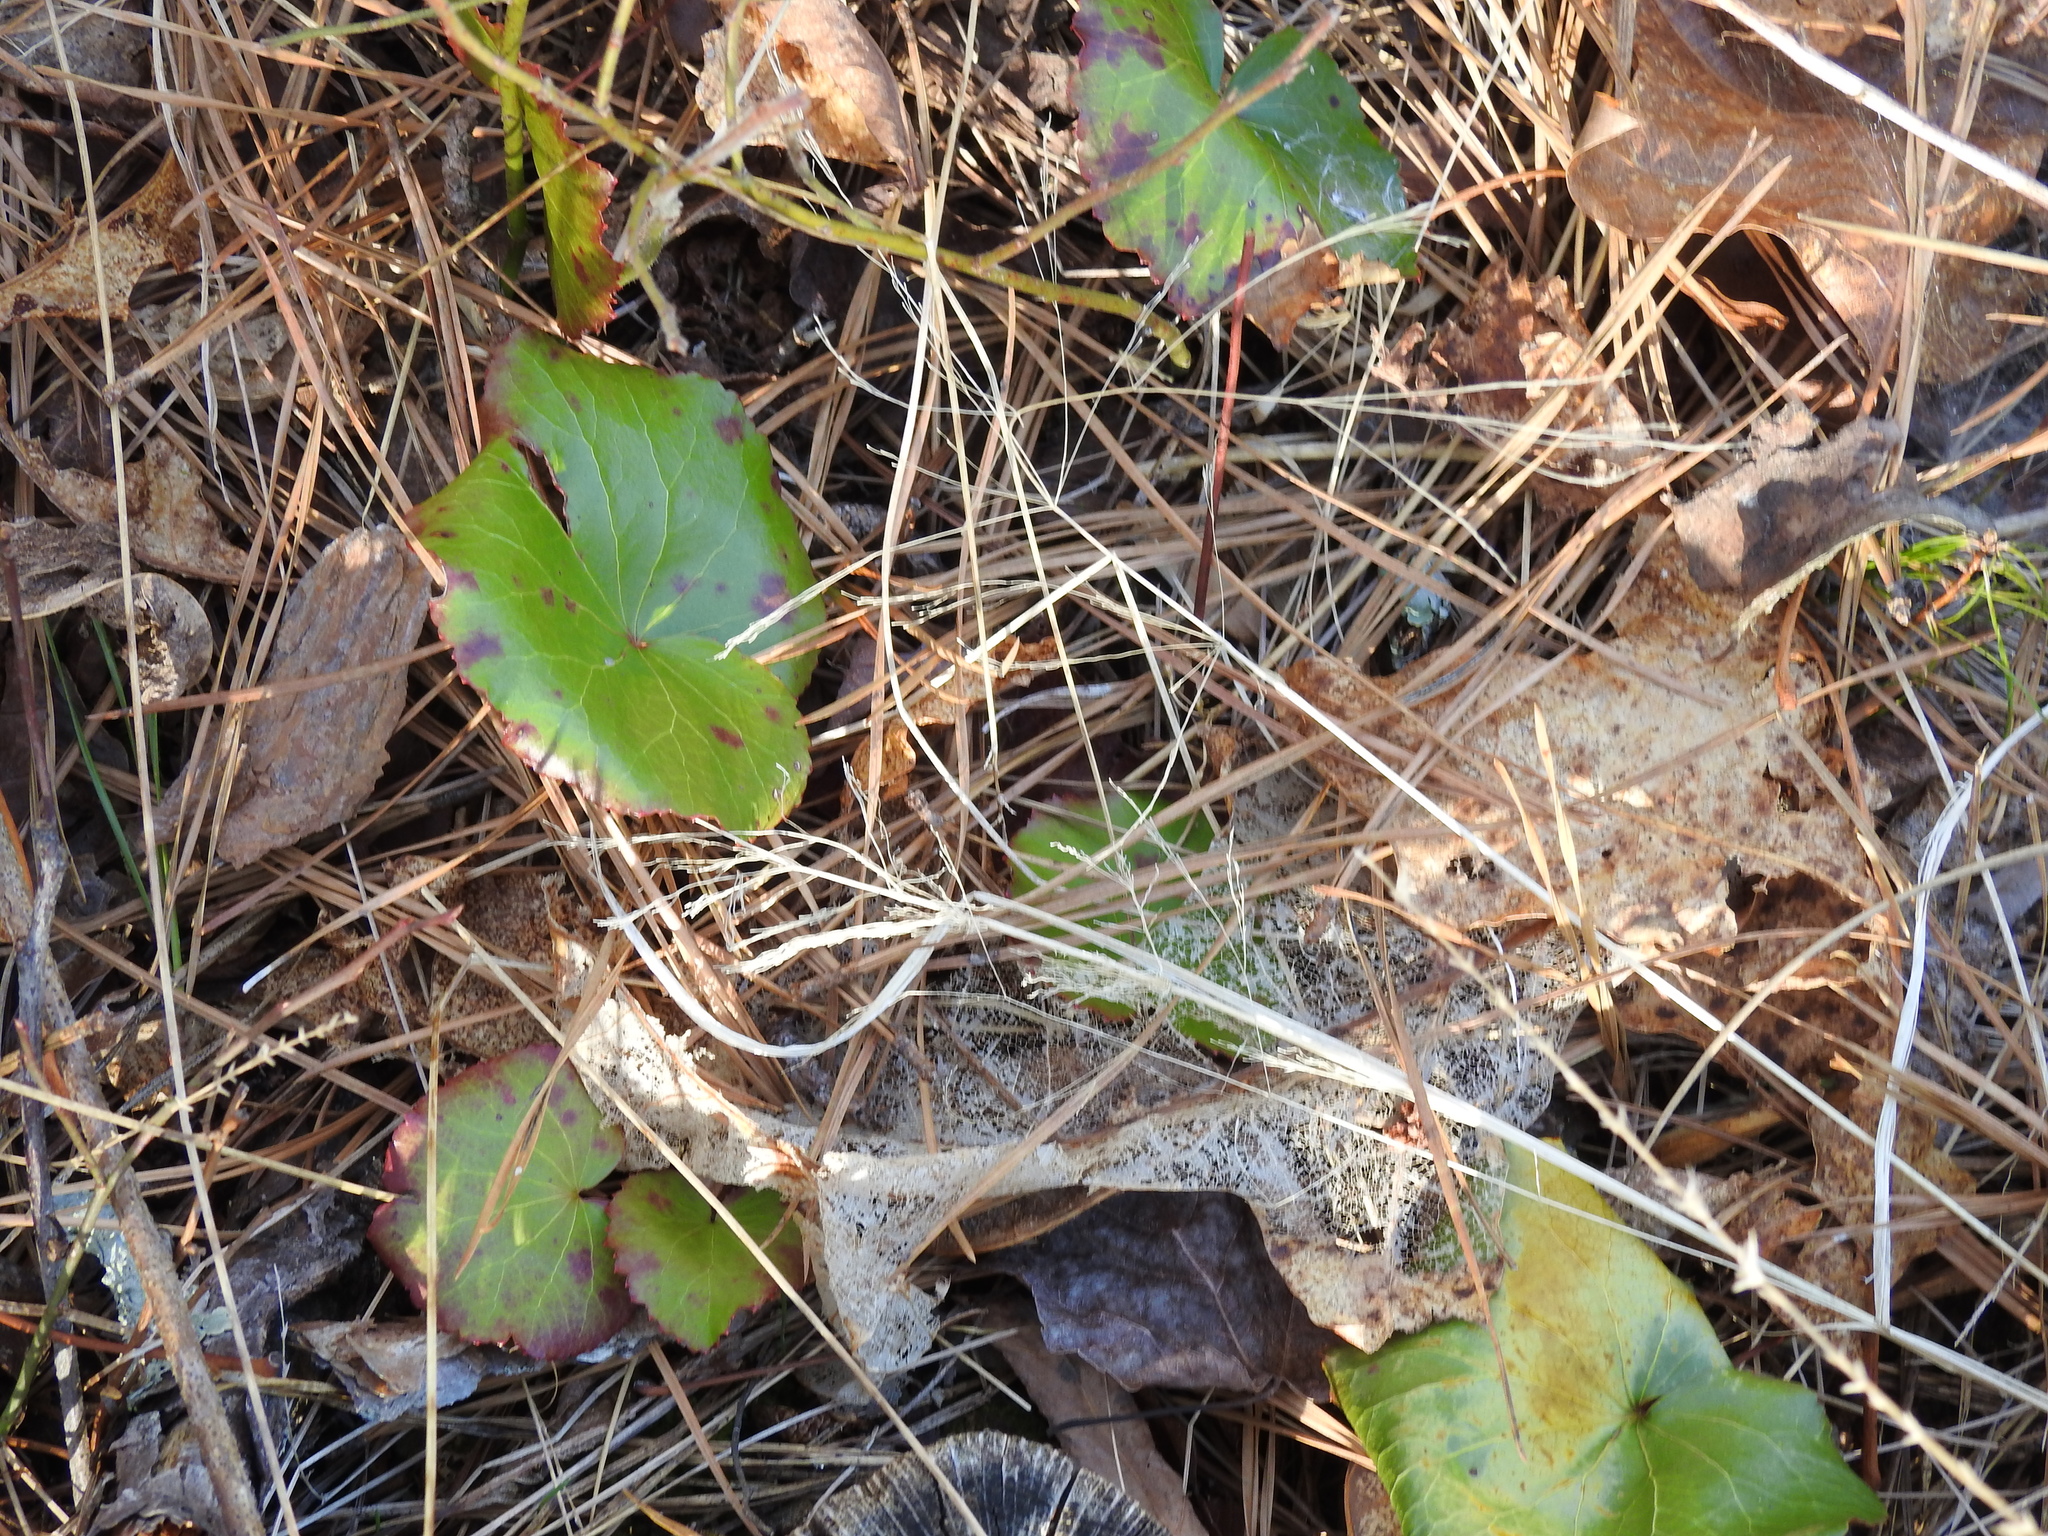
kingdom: Plantae
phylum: Tracheophyta
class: Magnoliopsida
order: Ericales
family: Diapensiaceae
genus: Galax
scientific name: Galax urceolata
